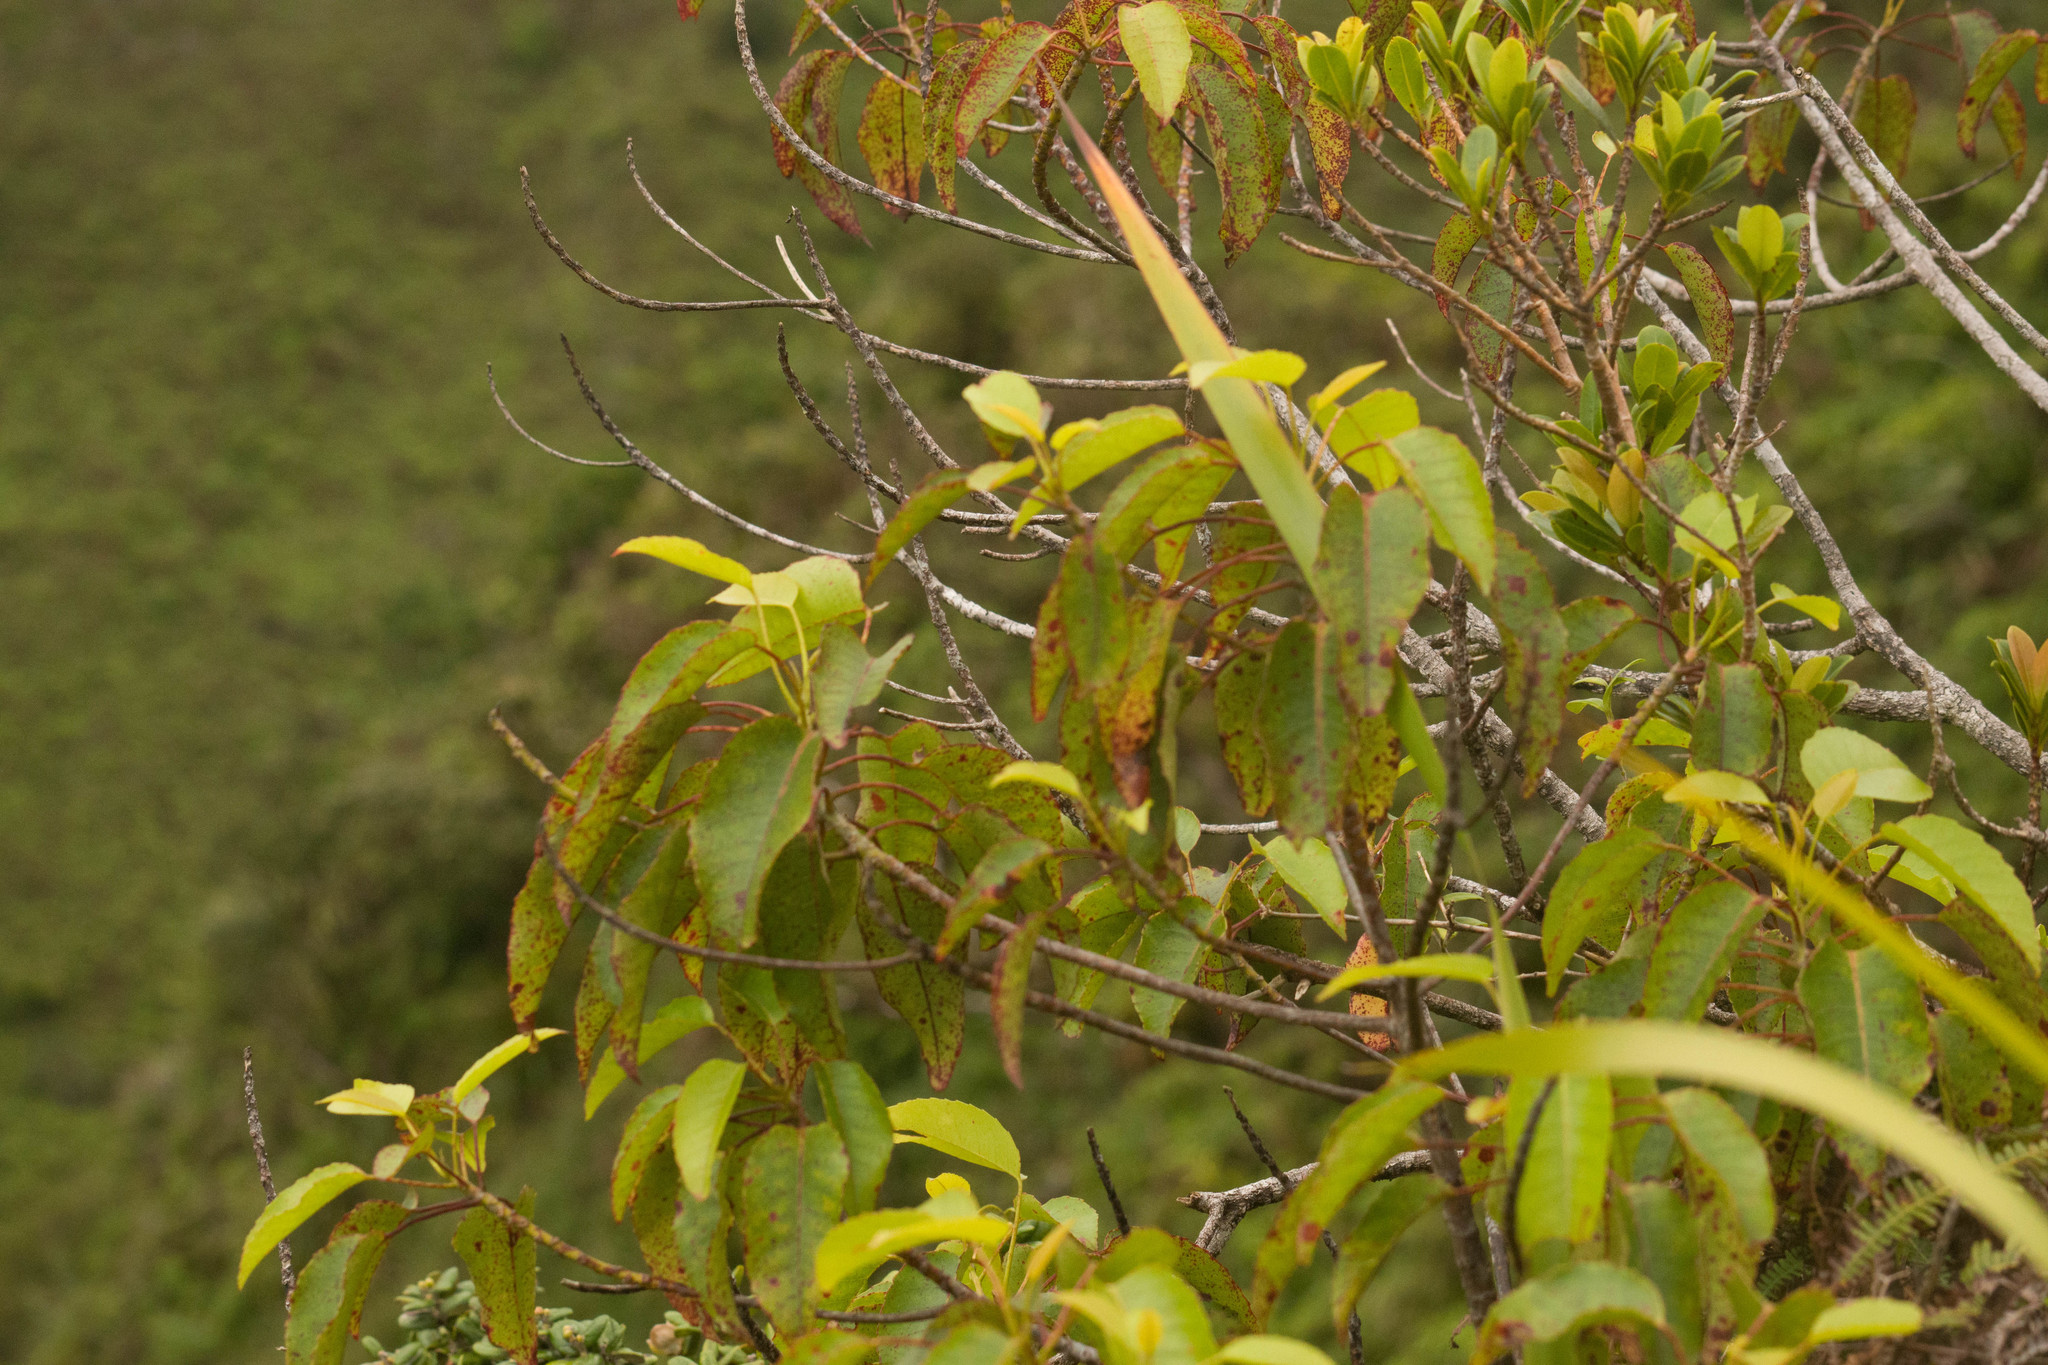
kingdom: Plantae
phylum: Tracheophyta
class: Magnoliopsida
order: Oxalidales
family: Elaeocarpaceae
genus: Elaeocarpus
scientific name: Elaeocarpus bifidus
